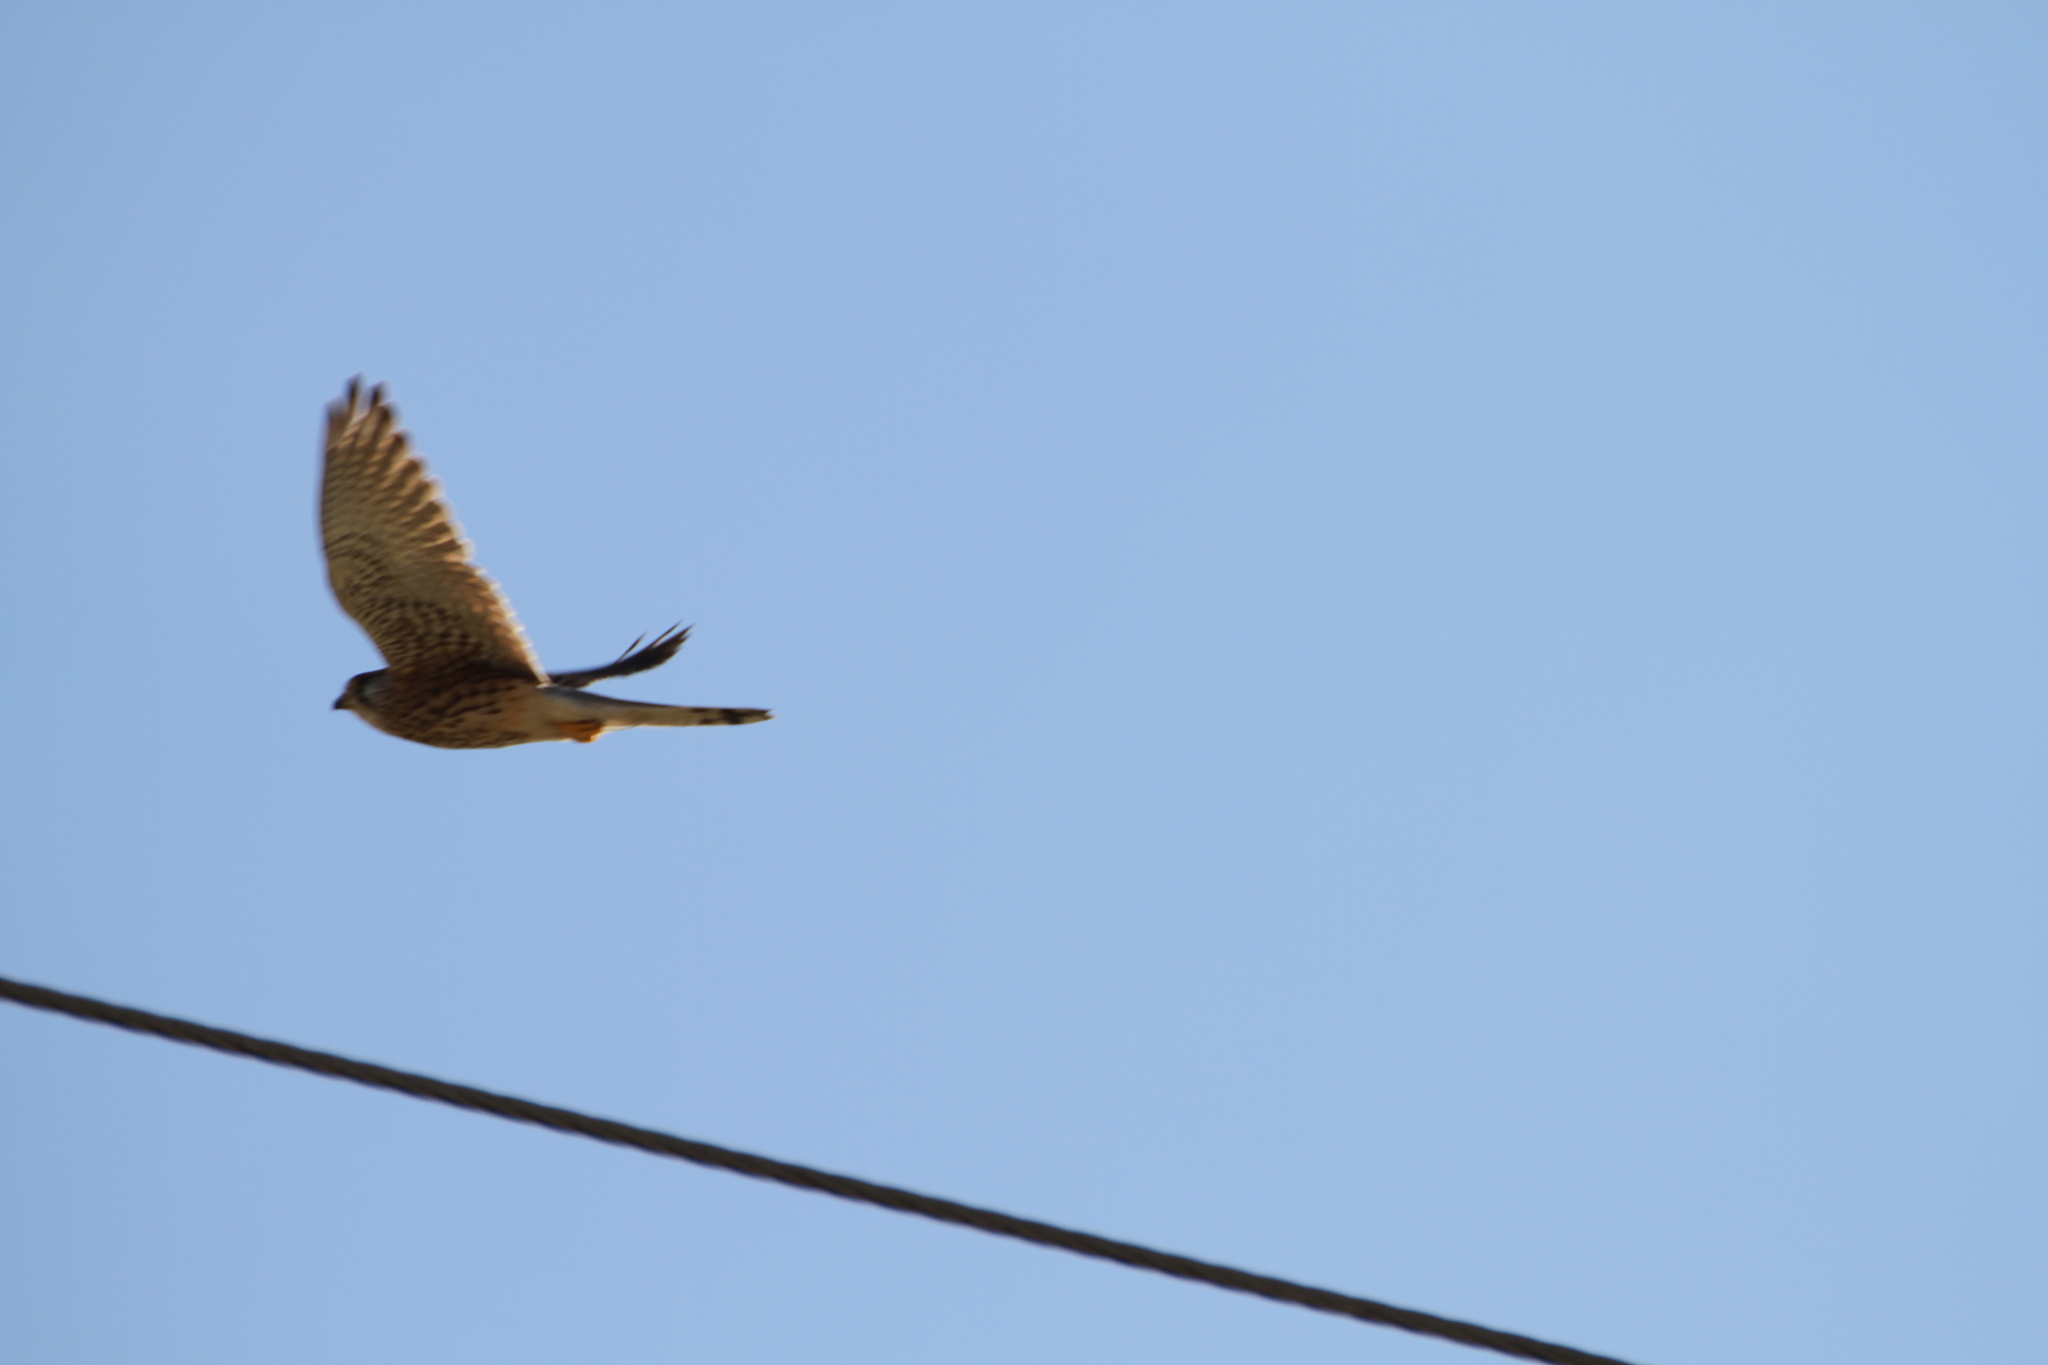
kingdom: Animalia
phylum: Chordata
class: Aves
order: Falconiformes
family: Falconidae
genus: Falco
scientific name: Falco tinnunculus
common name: Common kestrel
